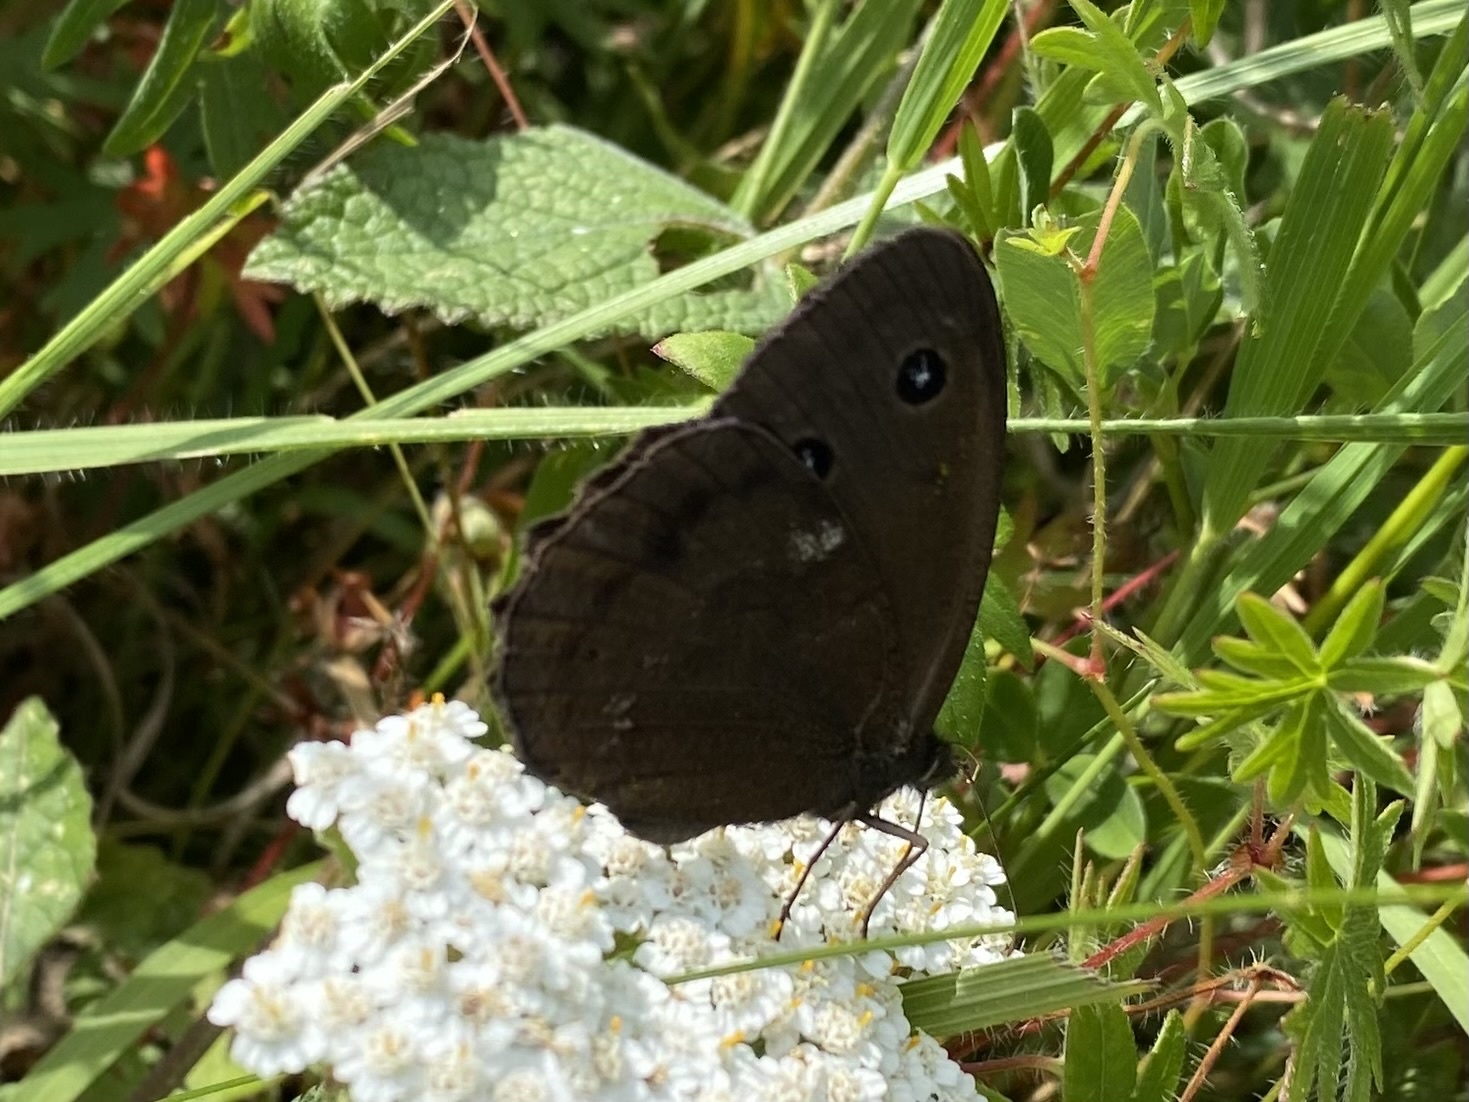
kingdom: Animalia
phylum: Arthropoda
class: Insecta
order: Lepidoptera
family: Nymphalidae
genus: Minois
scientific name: Minois dryas
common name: Dryad
